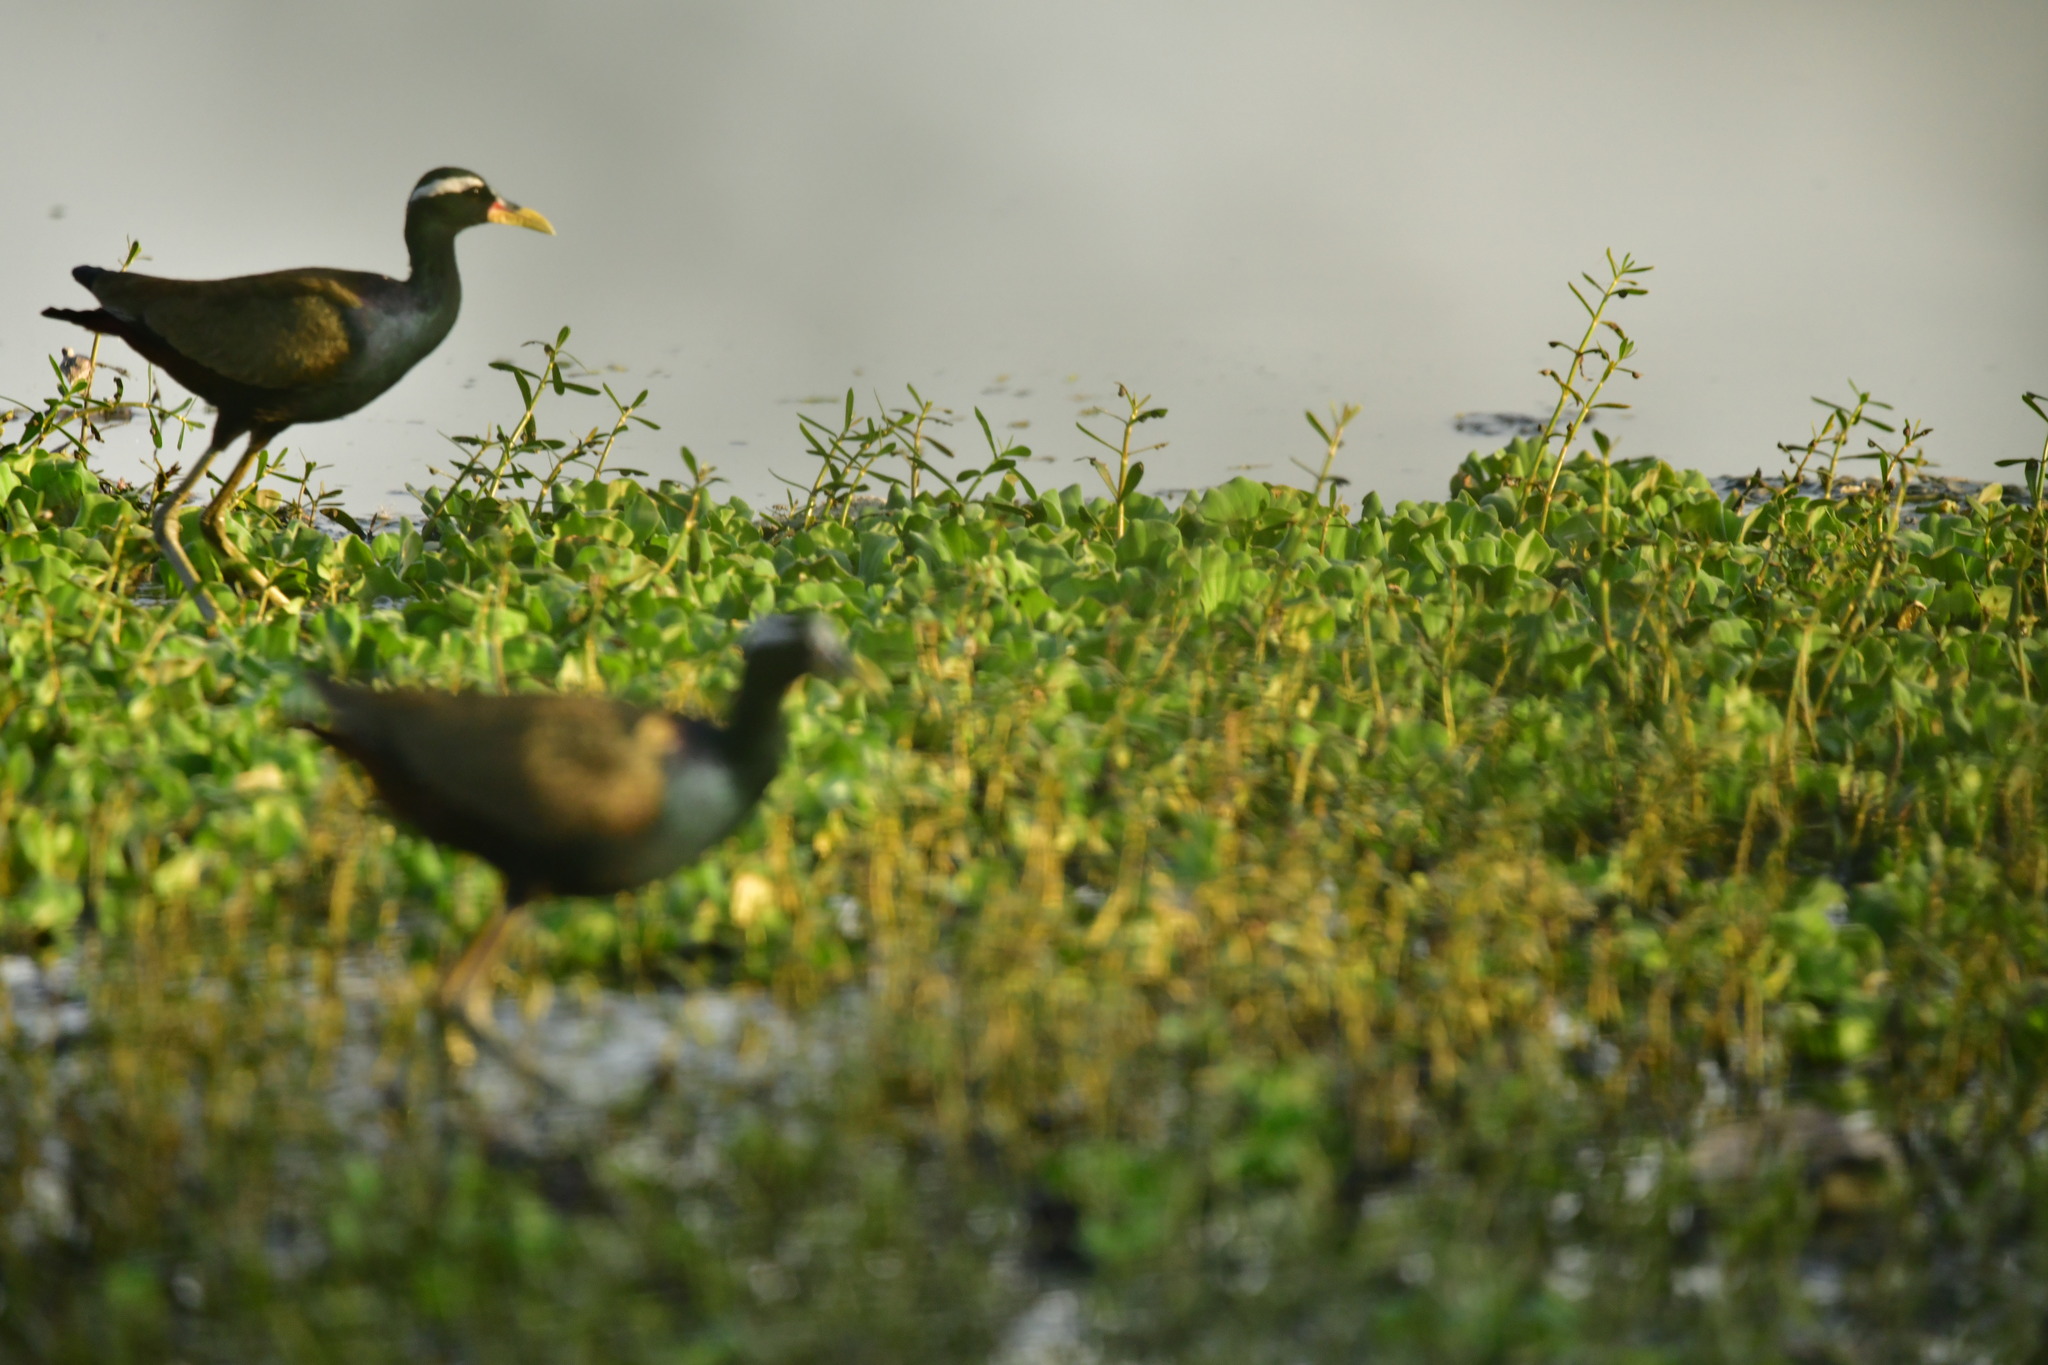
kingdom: Animalia
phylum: Chordata
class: Aves
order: Charadriiformes
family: Jacanidae
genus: Metopidius
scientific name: Metopidius indicus
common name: Bronze-winged jacana
